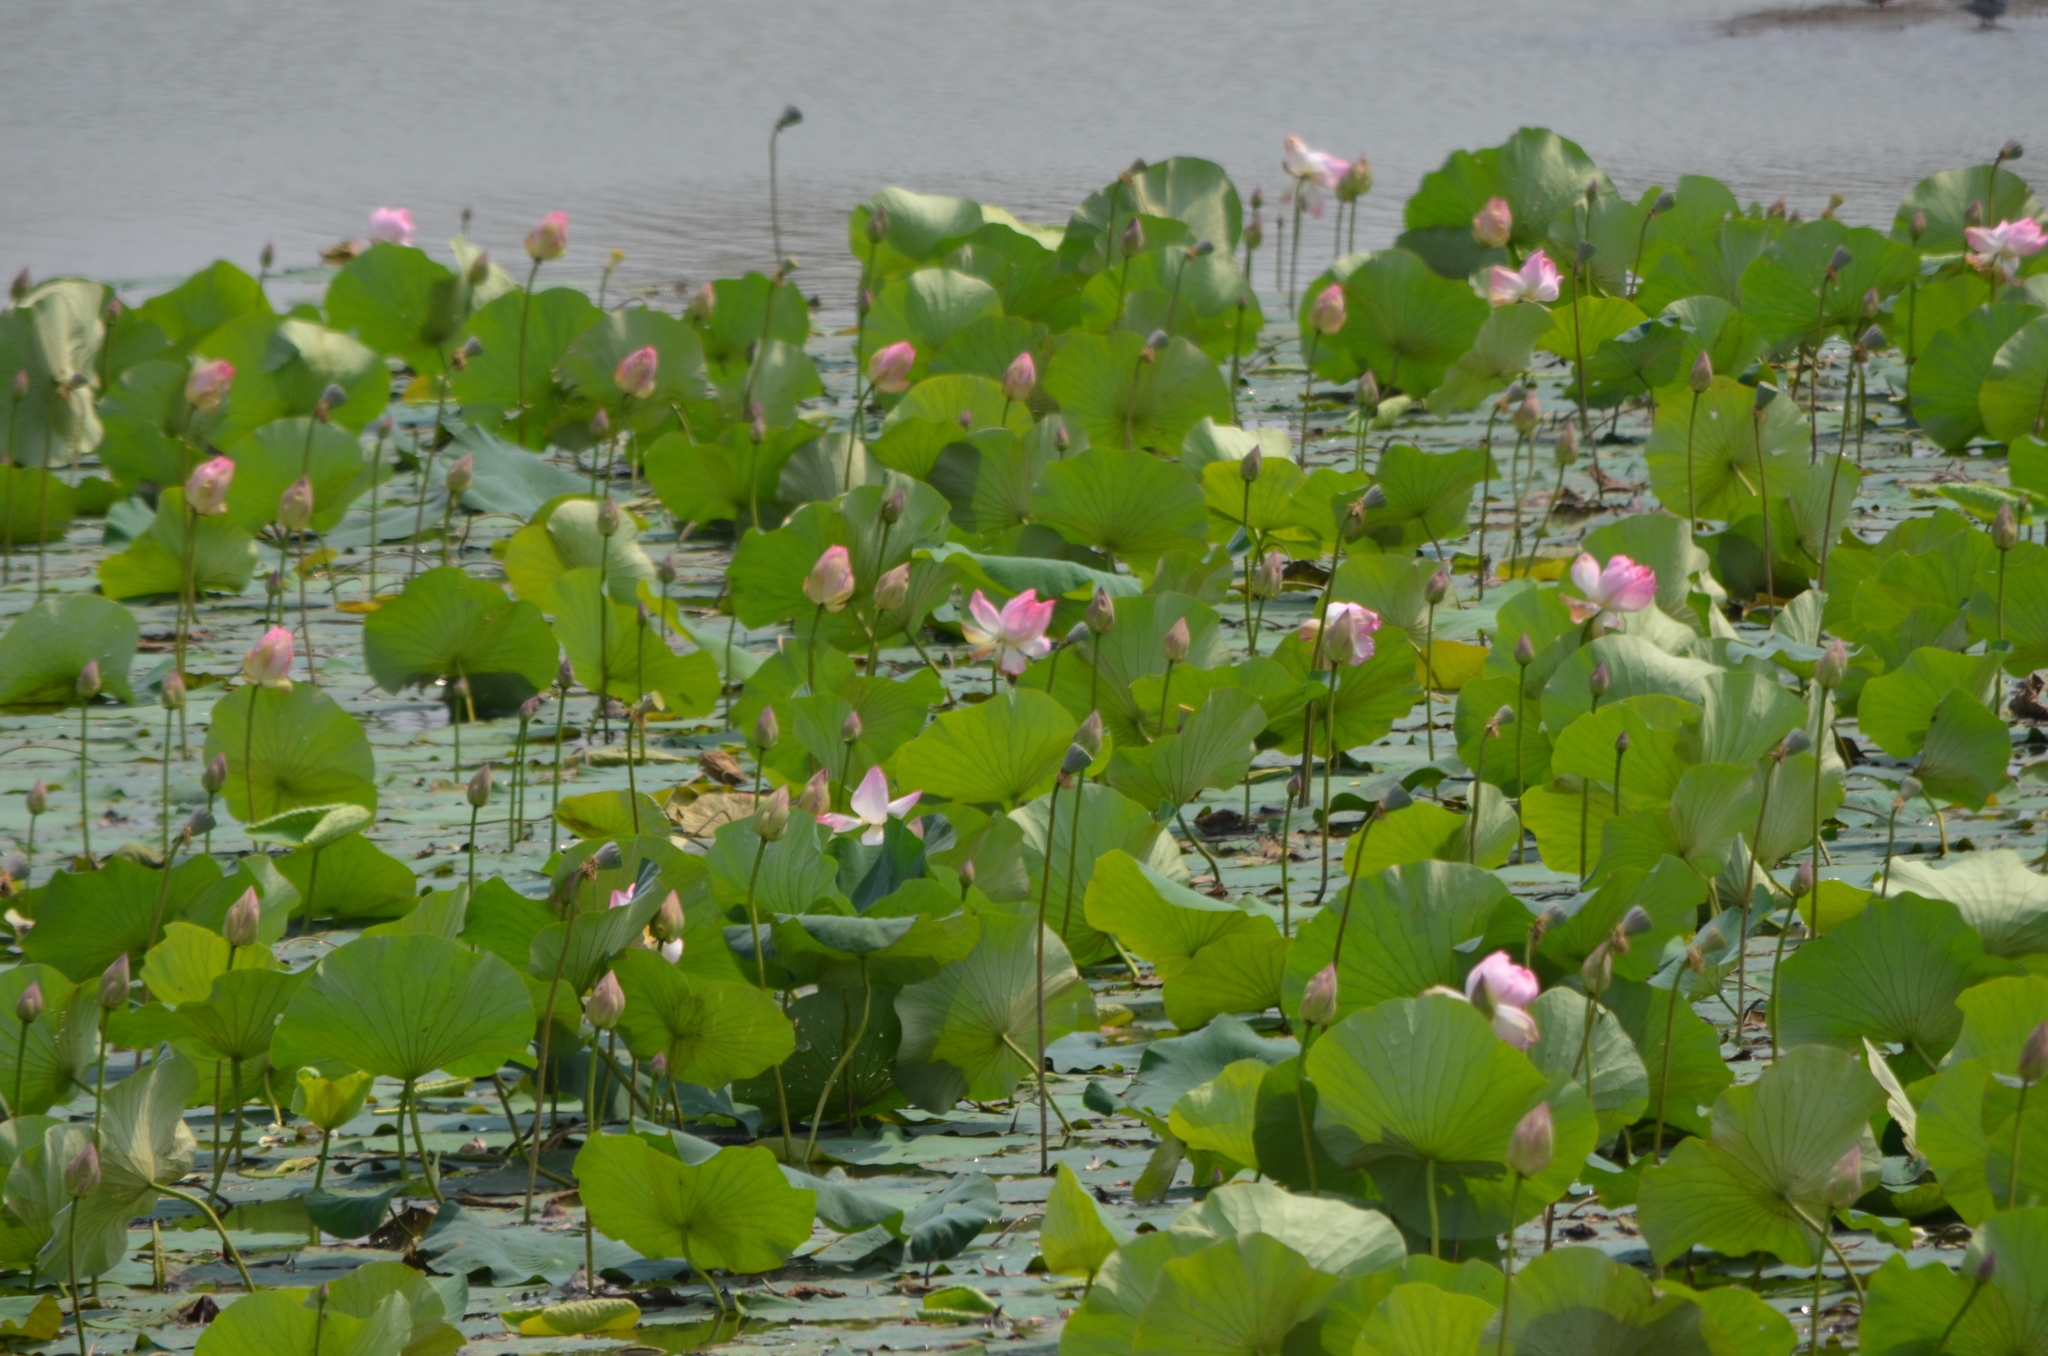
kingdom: Plantae
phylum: Tracheophyta
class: Magnoliopsida
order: Proteales
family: Nelumbonaceae
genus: Nelumbo
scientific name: Nelumbo nucifera
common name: Sacred lotus
